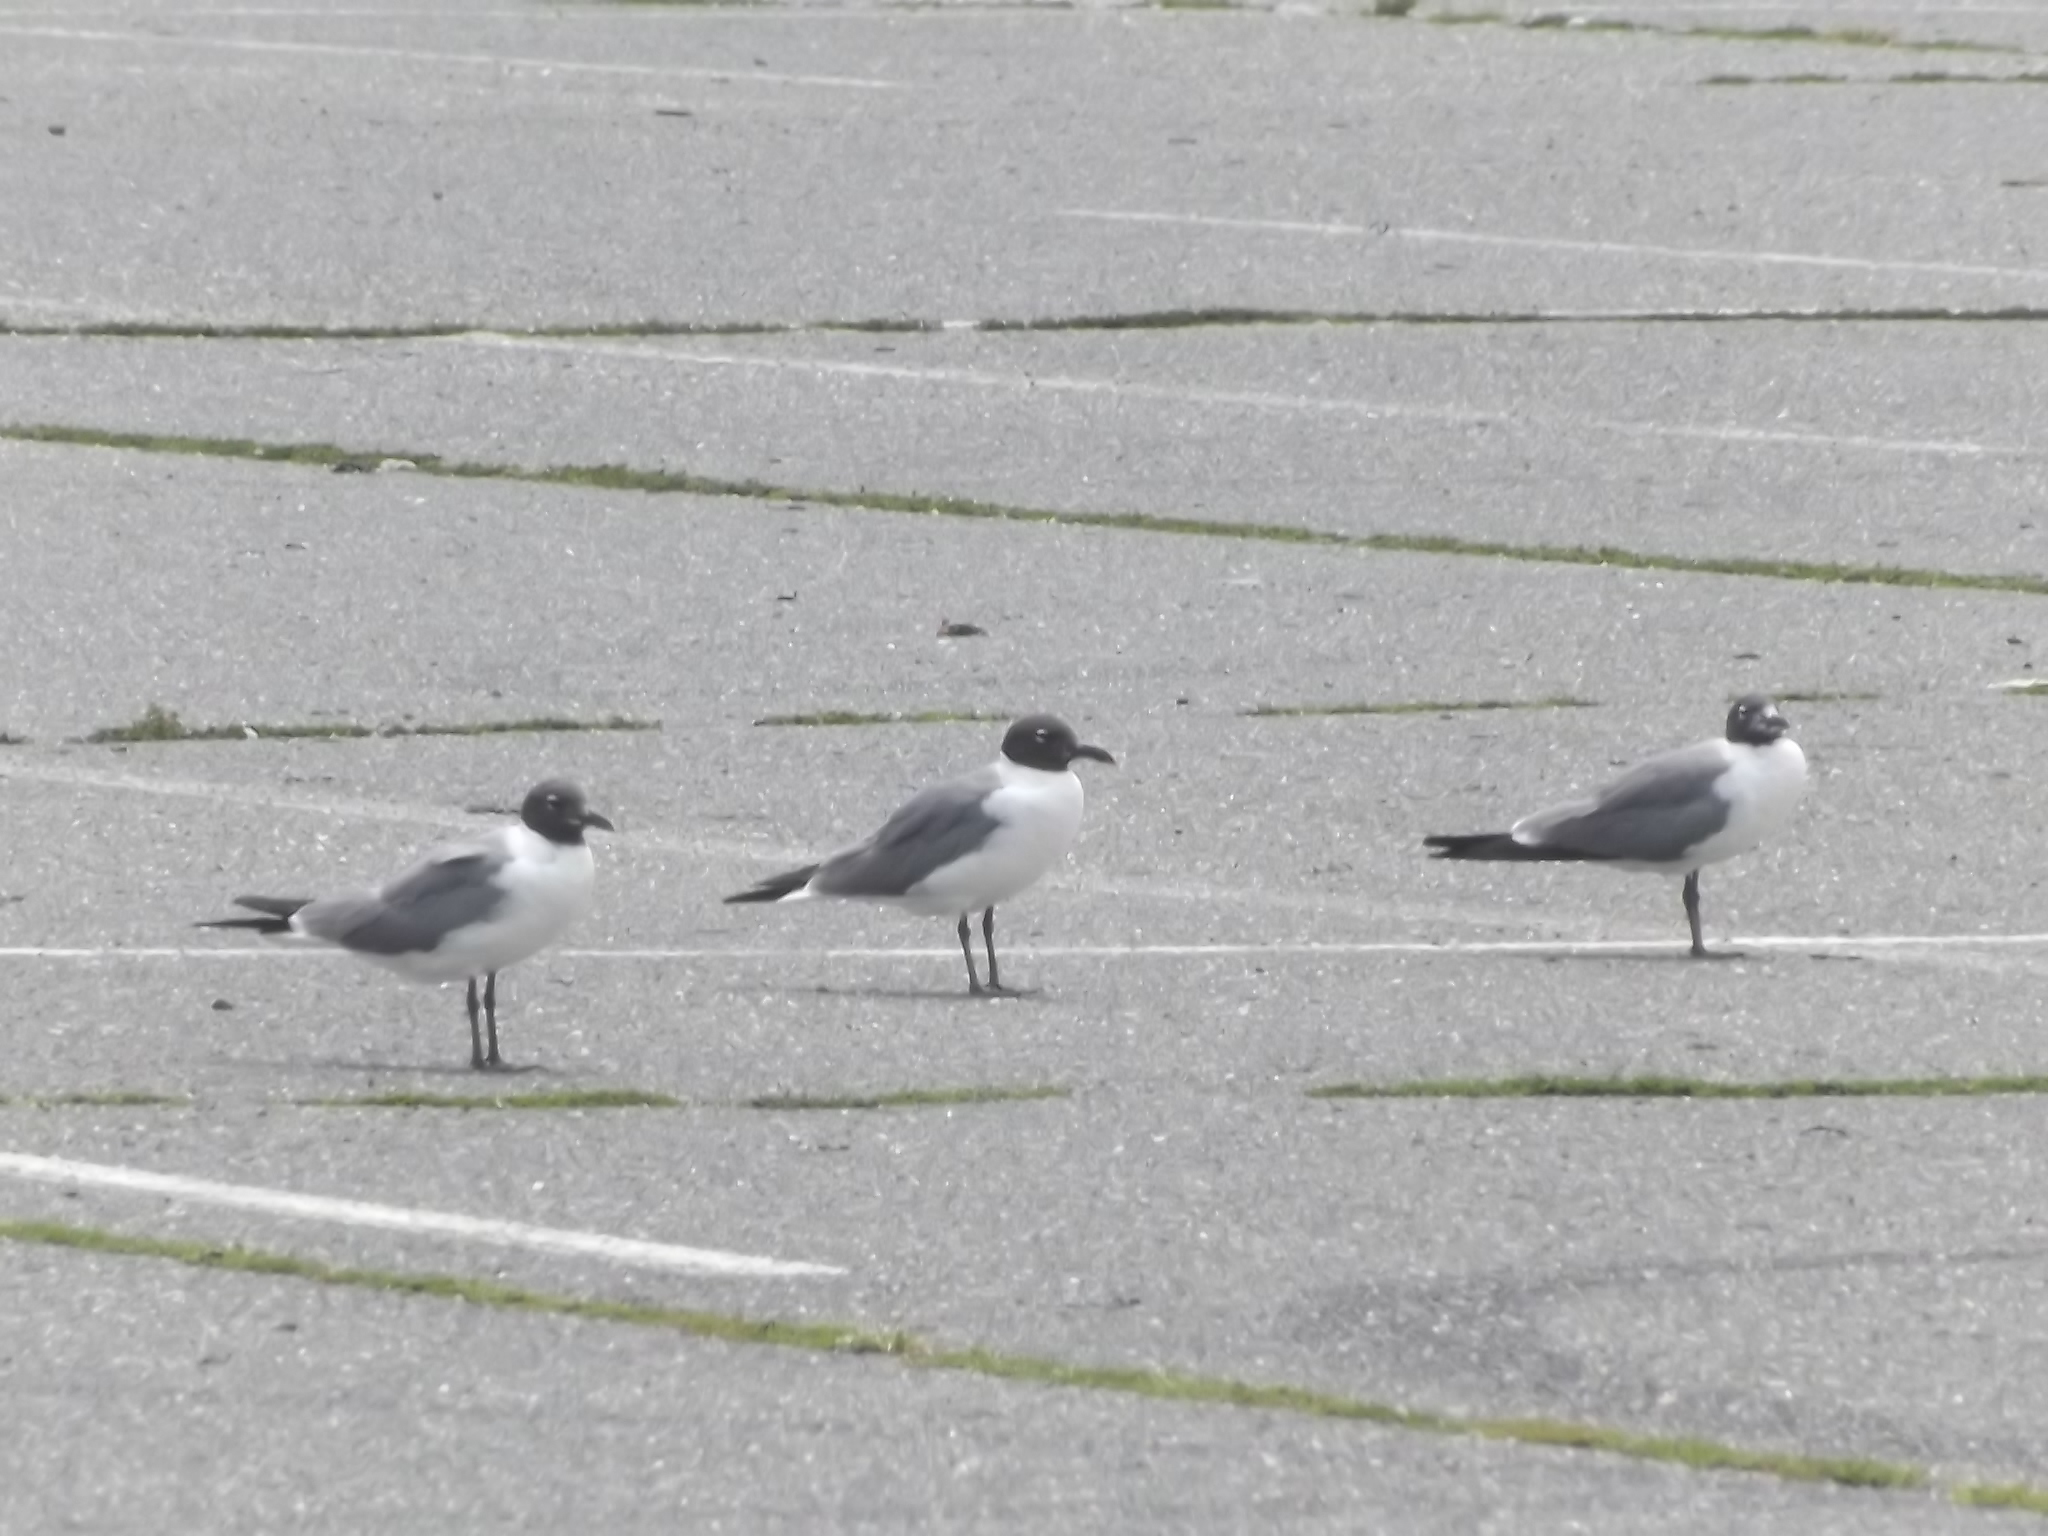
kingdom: Animalia
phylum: Chordata
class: Aves
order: Charadriiformes
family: Laridae
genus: Leucophaeus
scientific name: Leucophaeus atricilla
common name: Laughing gull
